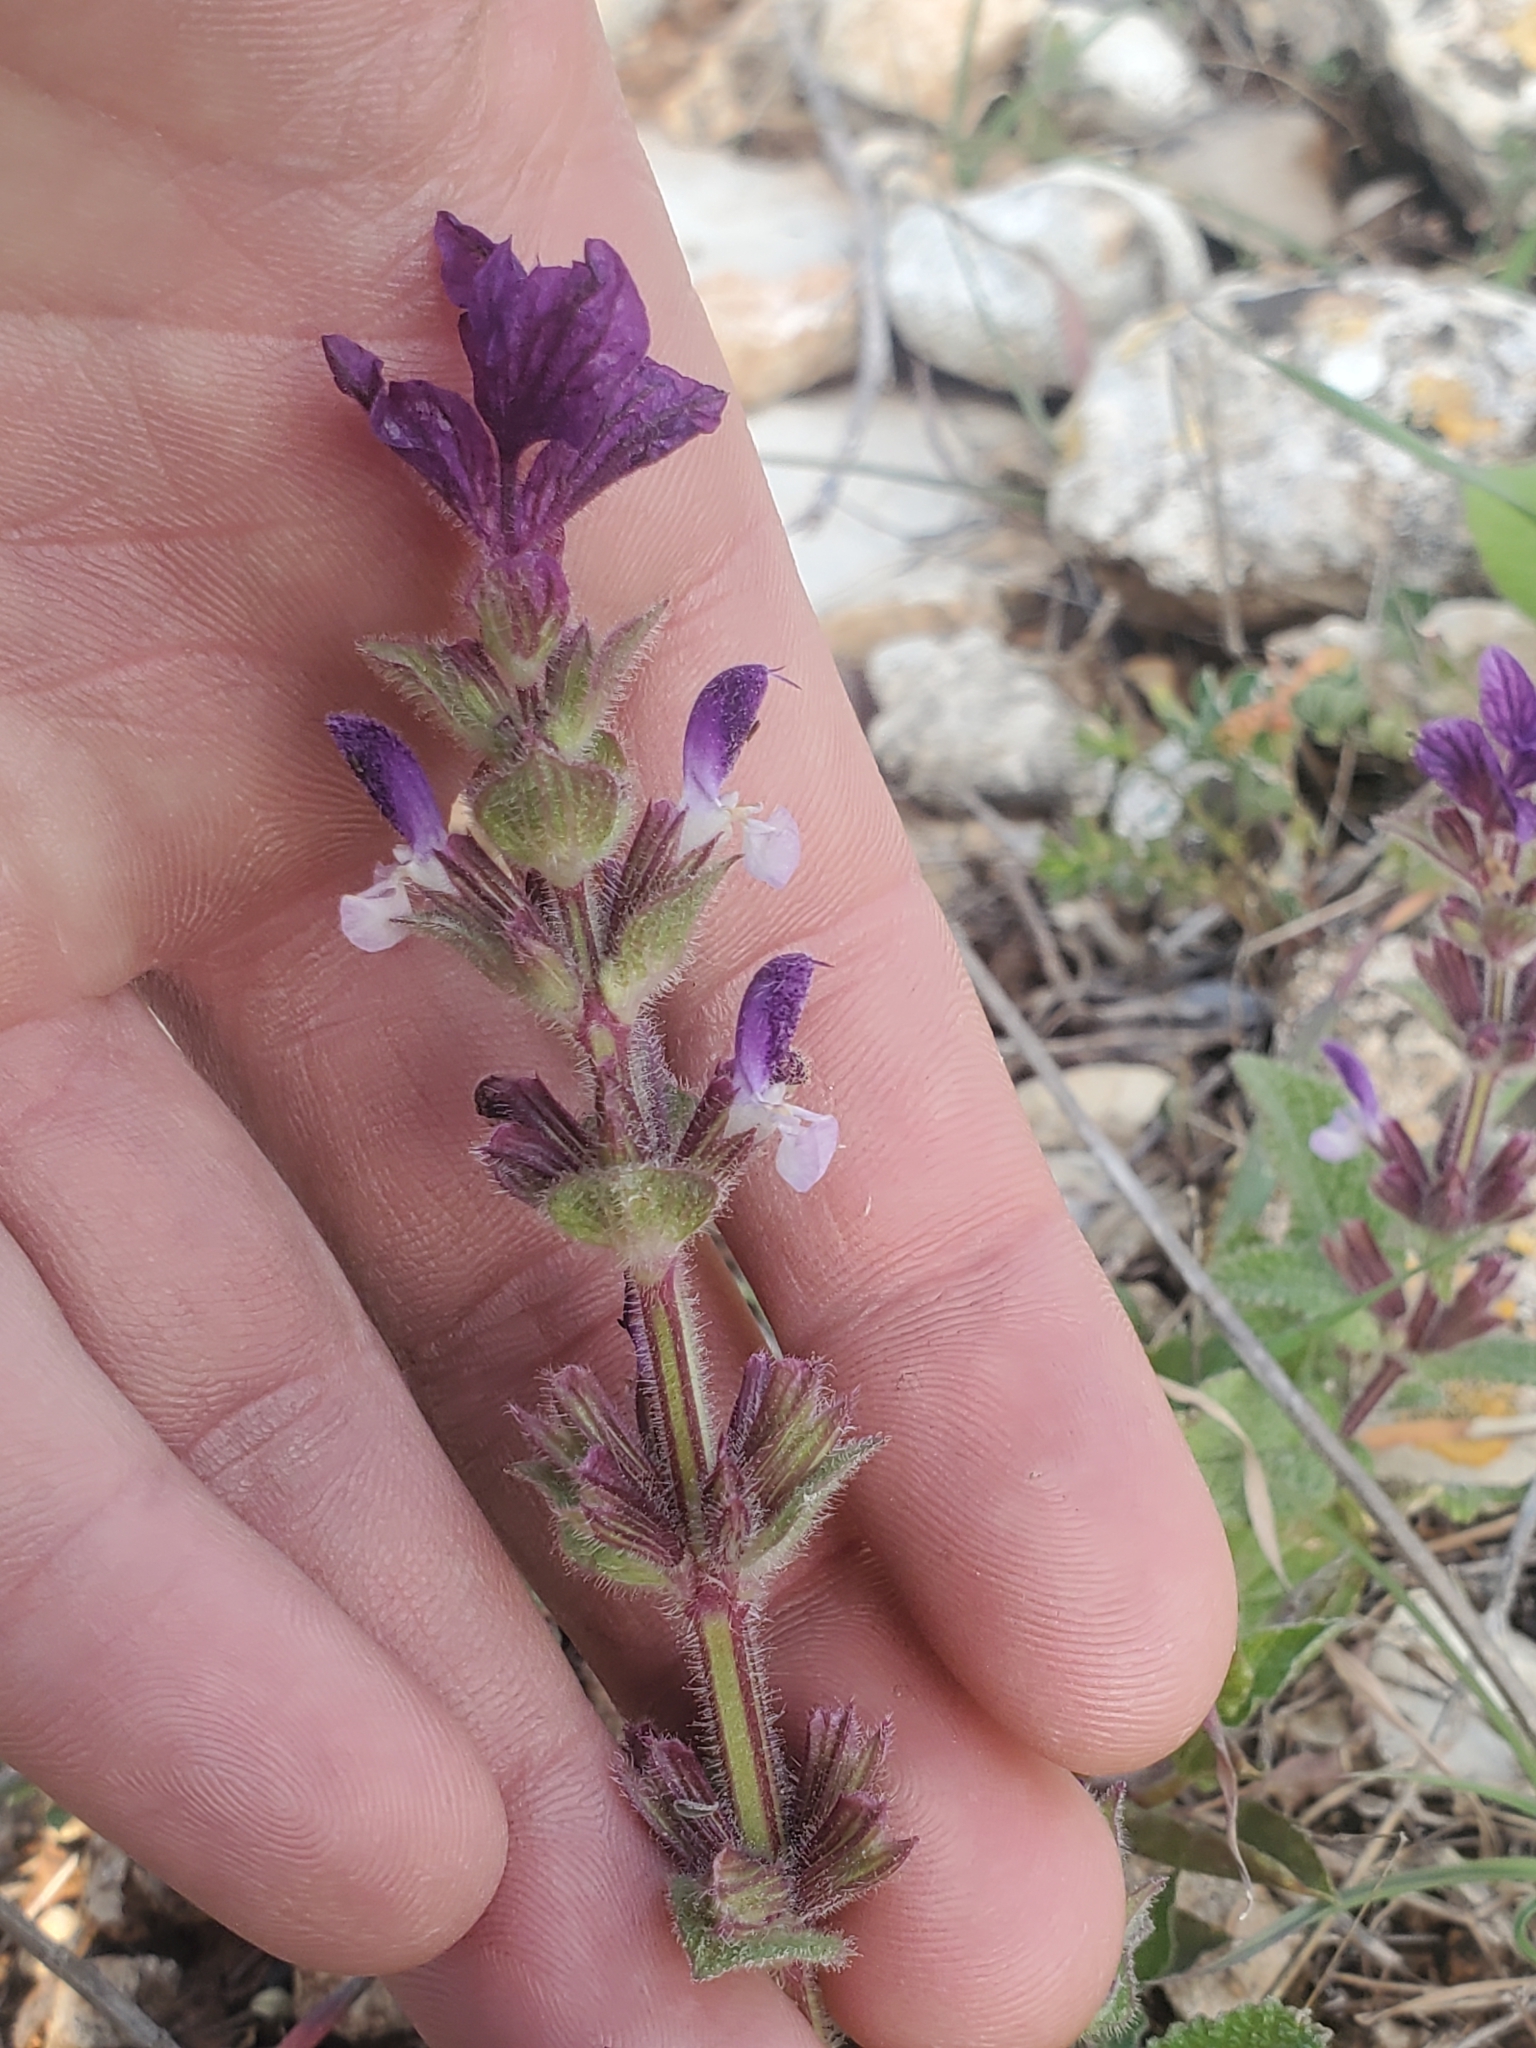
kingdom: Plantae
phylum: Tracheophyta
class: Magnoliopsida
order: Lamiales
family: Lamiaceae
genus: Salvia
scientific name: Salvia viridis
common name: Annual clary
